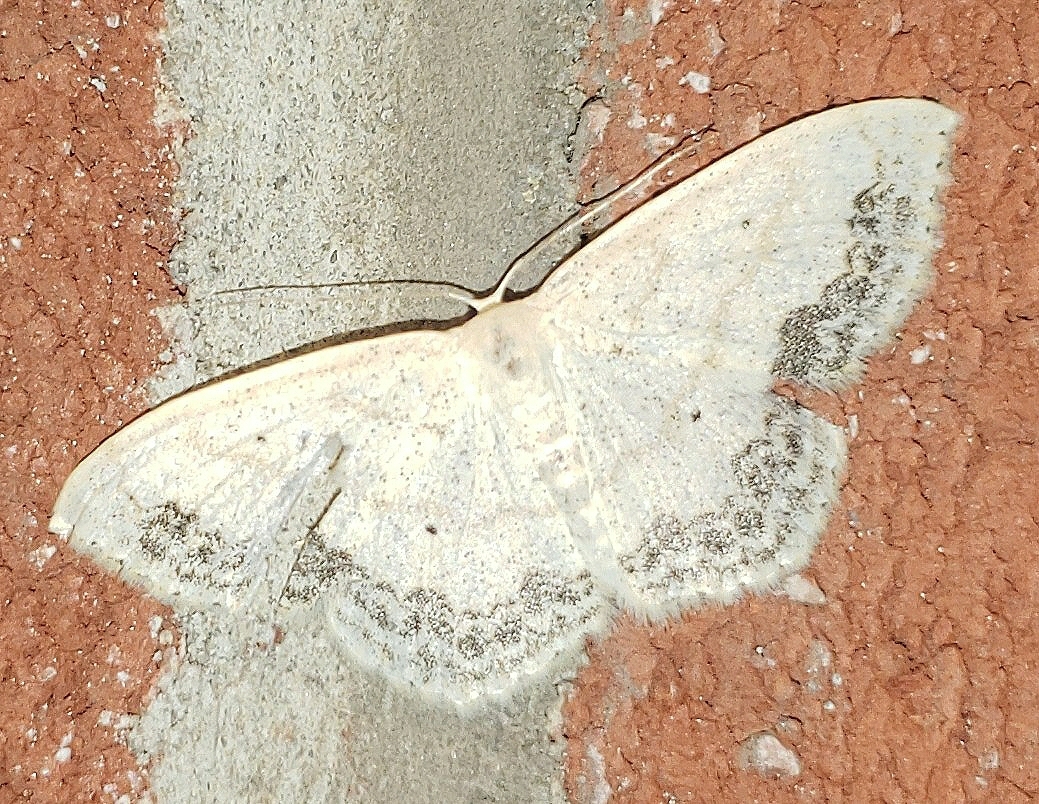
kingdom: Animalia
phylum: Arthropoda
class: Insecta
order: Lepidoptera
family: Geometridae
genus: Scopula
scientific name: Scopula limboundata
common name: Large lace border
